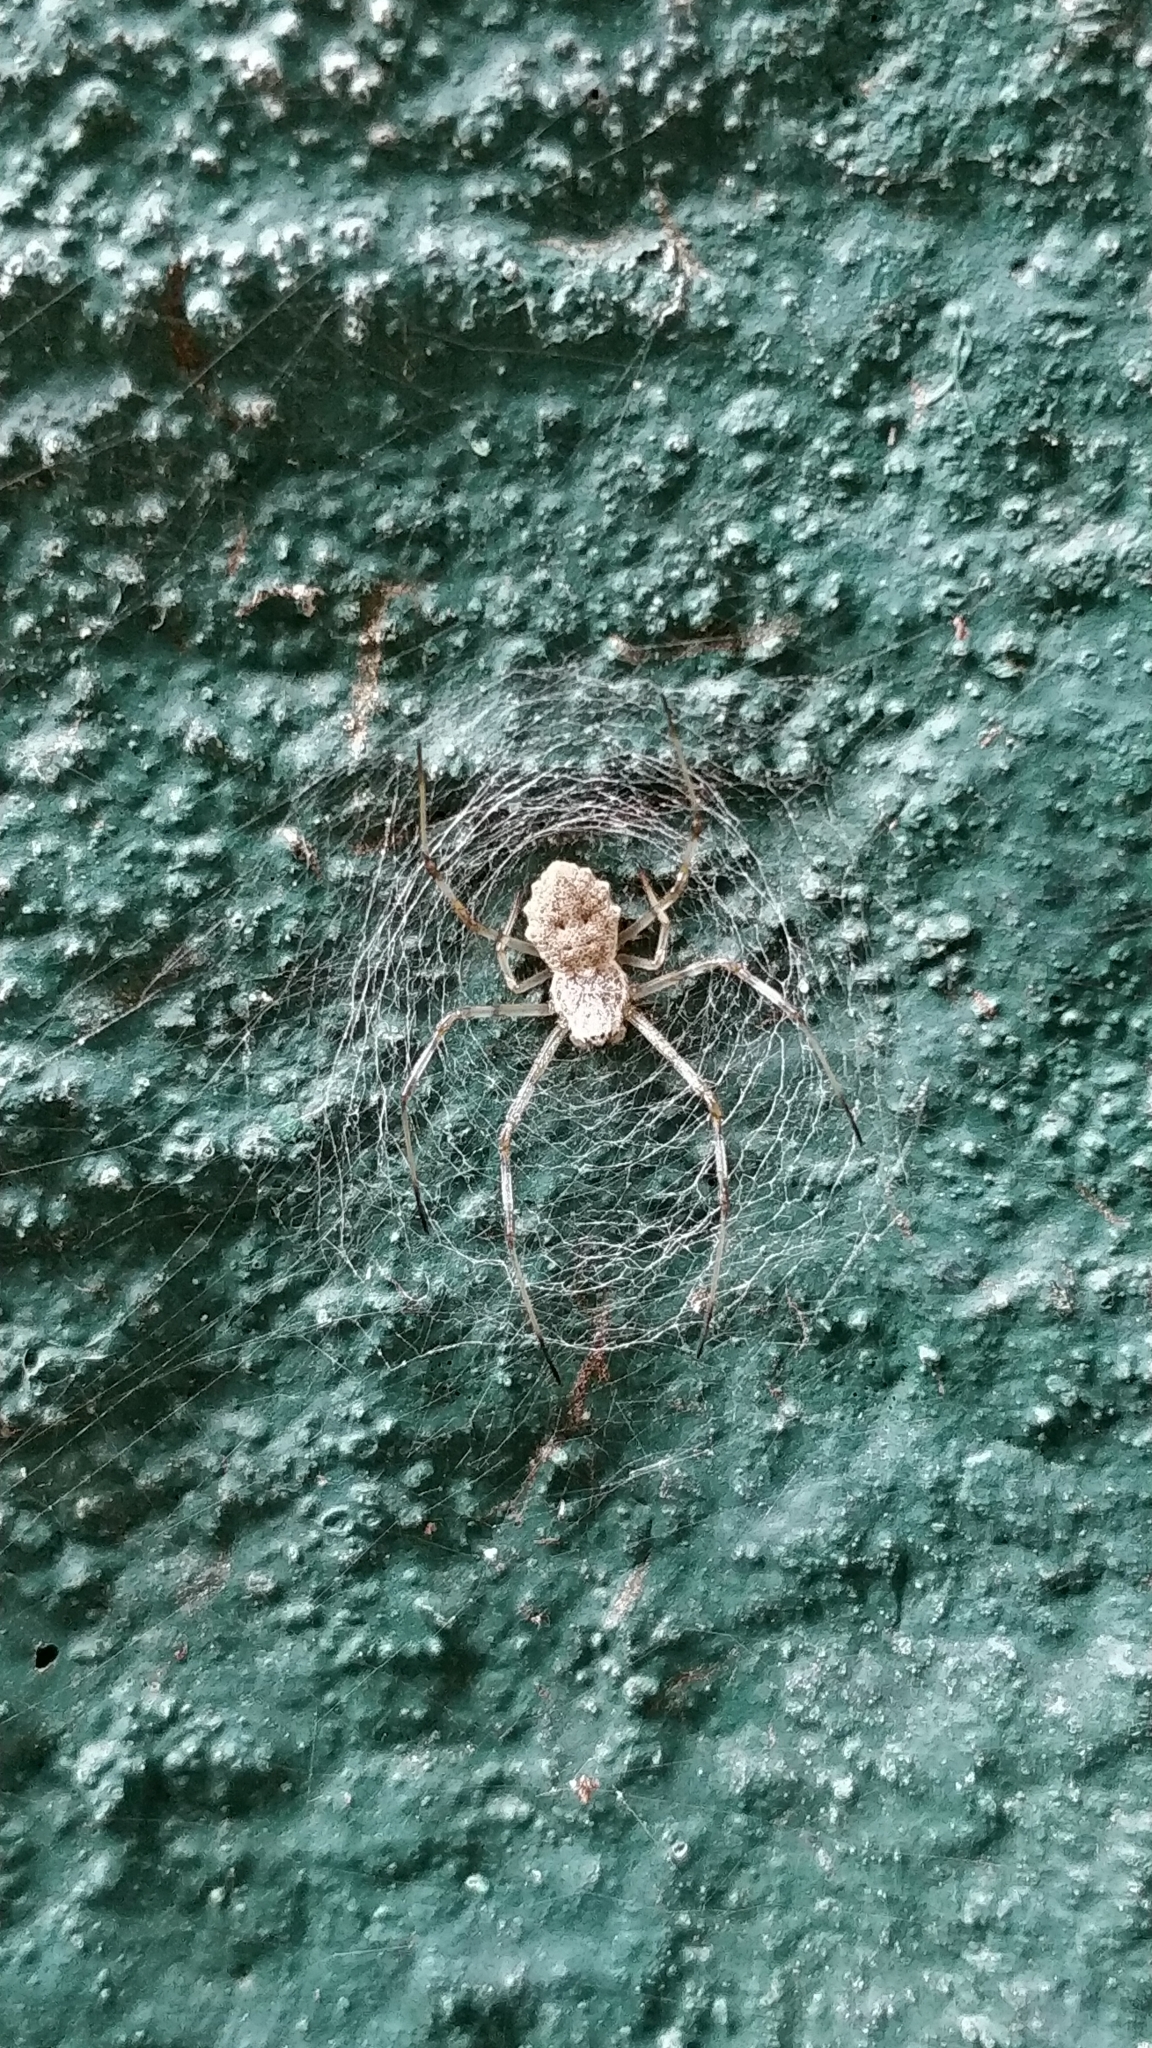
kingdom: Animalia
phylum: Arthropoda
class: Arachnida
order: Araneae
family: Araneidae
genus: Herennia
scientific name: Herennia multipuncta
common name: Spotted coin spider
